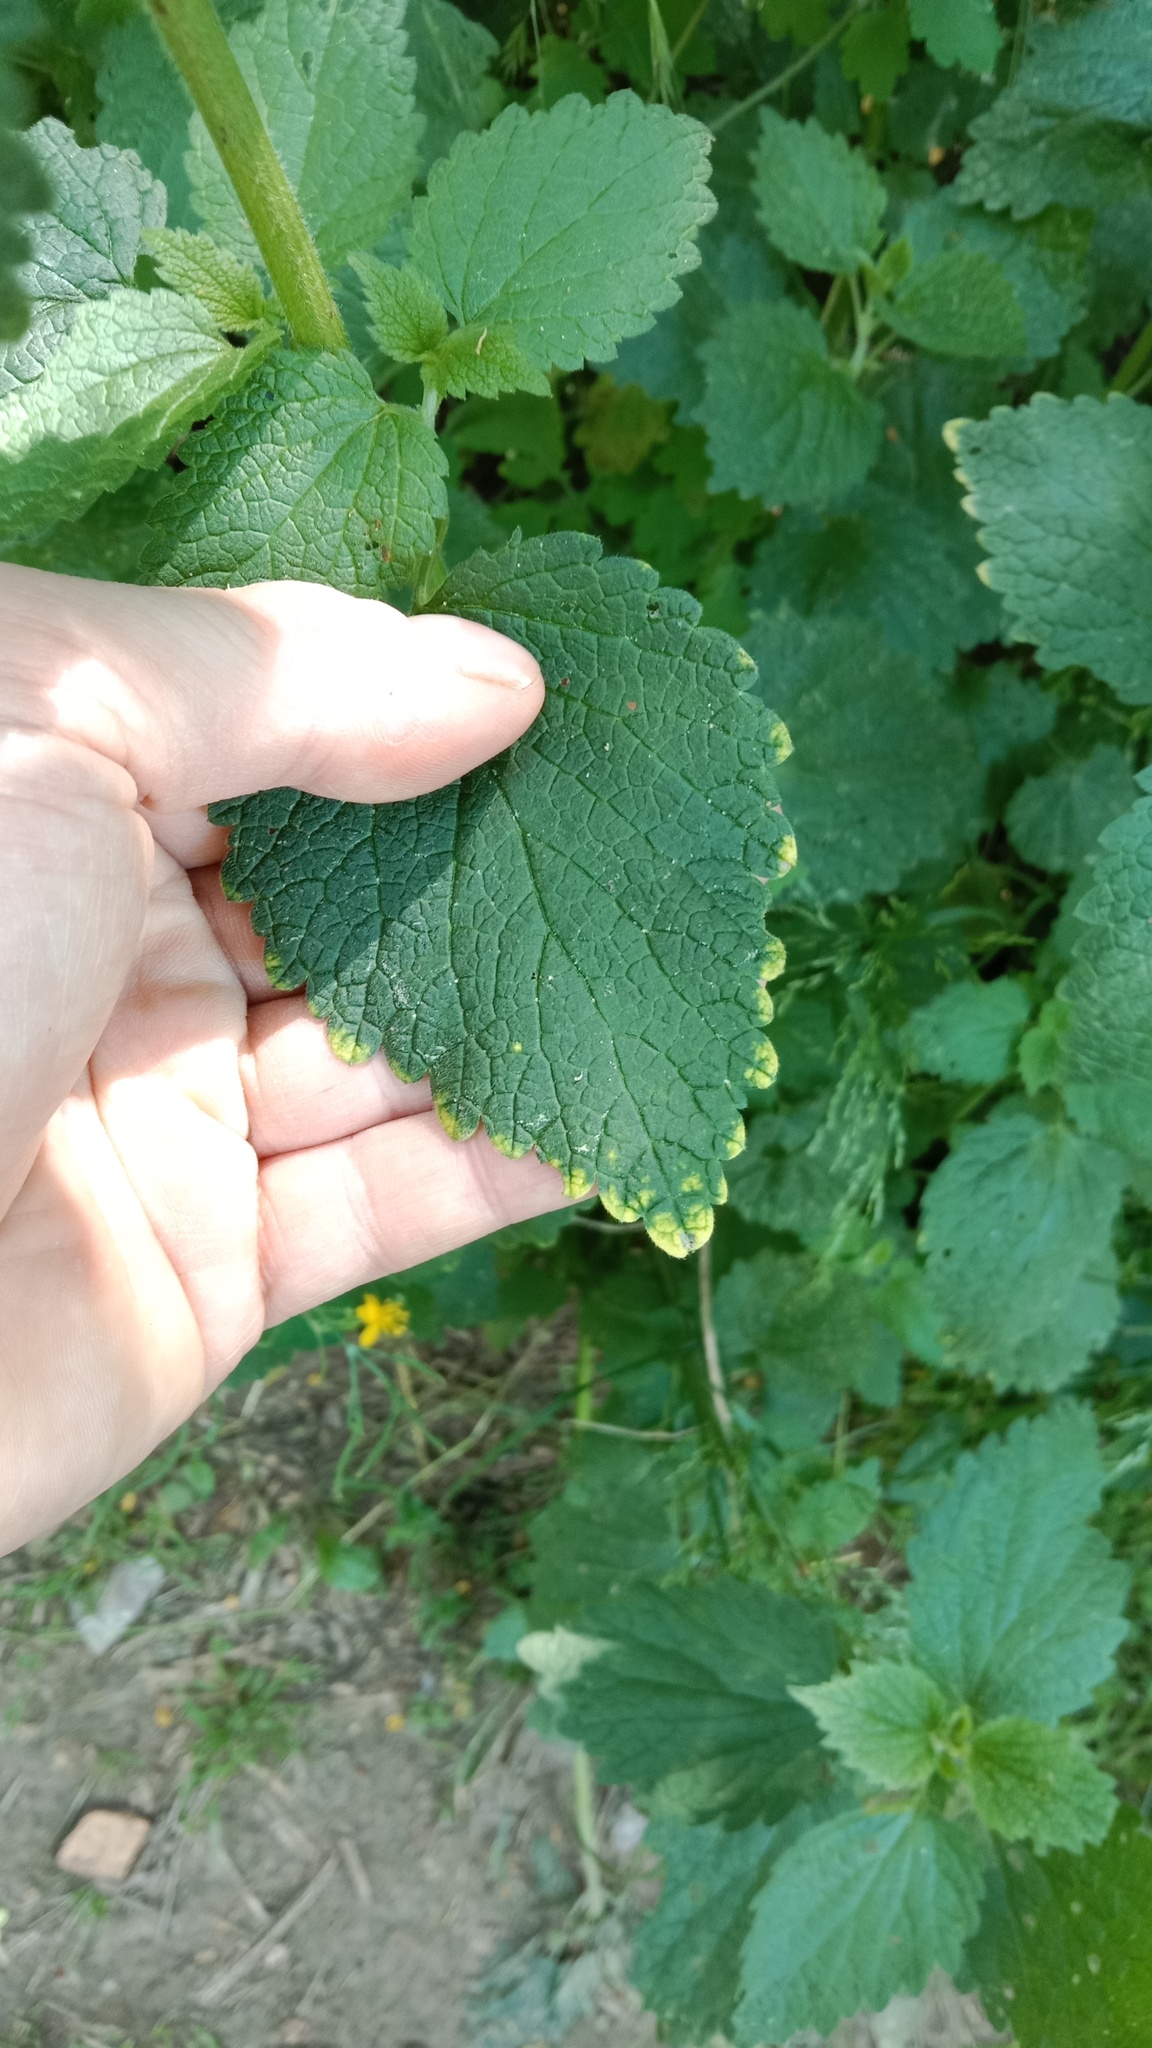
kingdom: Plantae
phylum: Tracheophyta
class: Magnoliopsida
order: Lamiales
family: Lamiaceae
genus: Ballota
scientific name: Ballota nigra
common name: Black horehound
